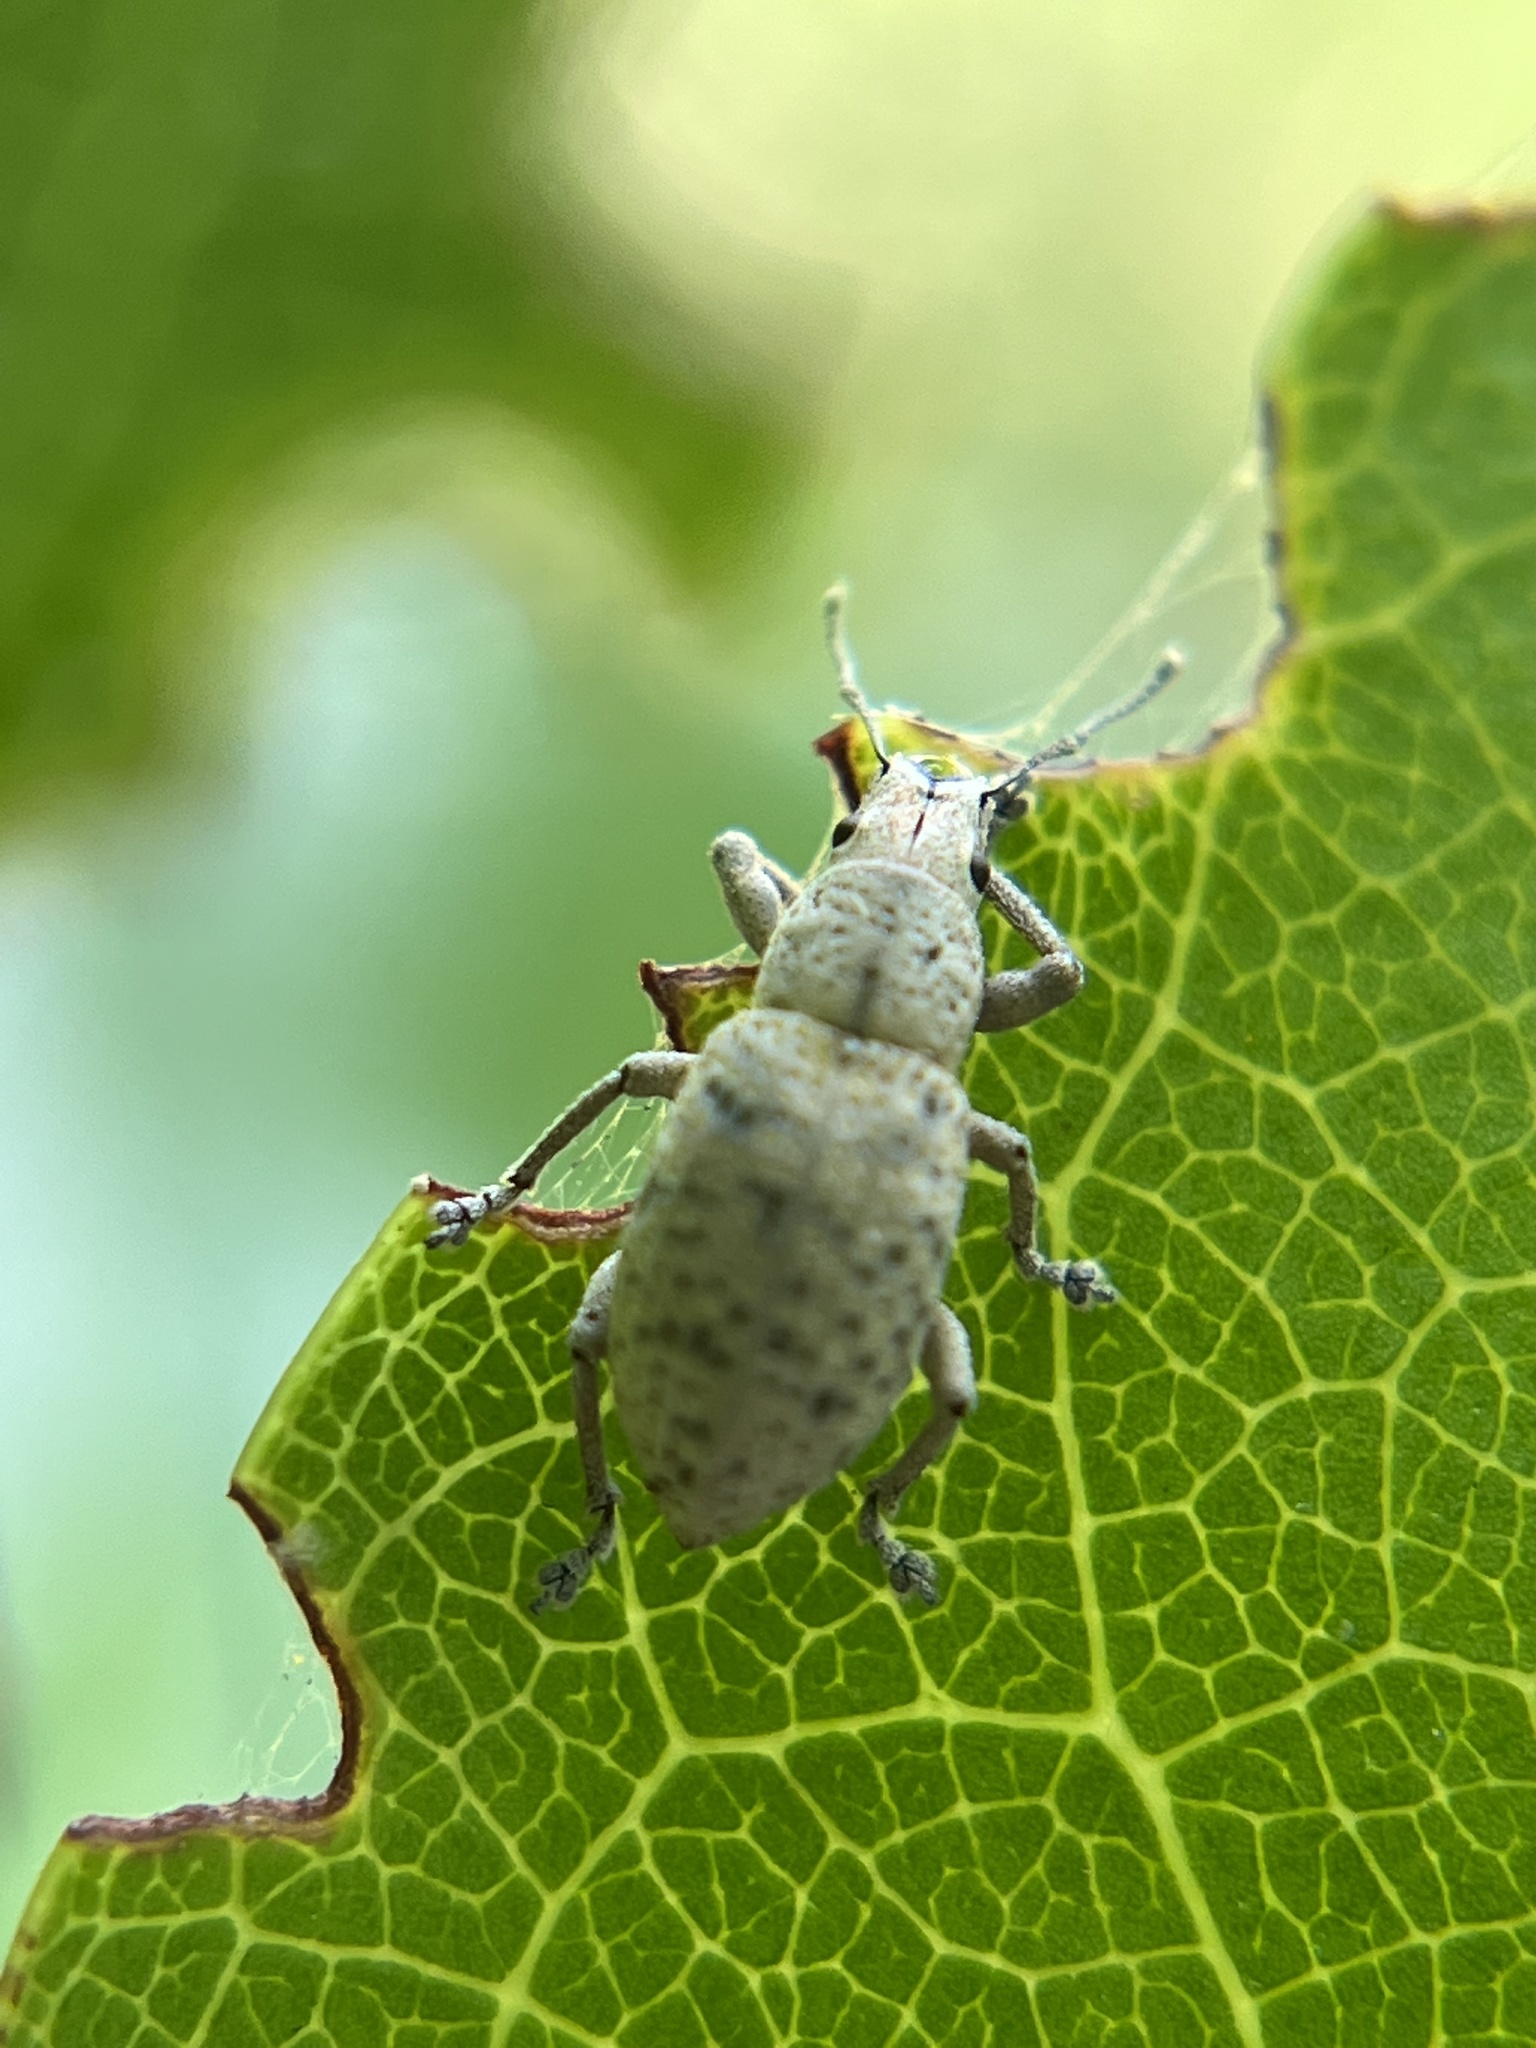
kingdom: Animalia
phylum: Arthropoda
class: Insecta
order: Coleoptera
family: Curculionidae
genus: Artipus
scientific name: Artipus floridanus
